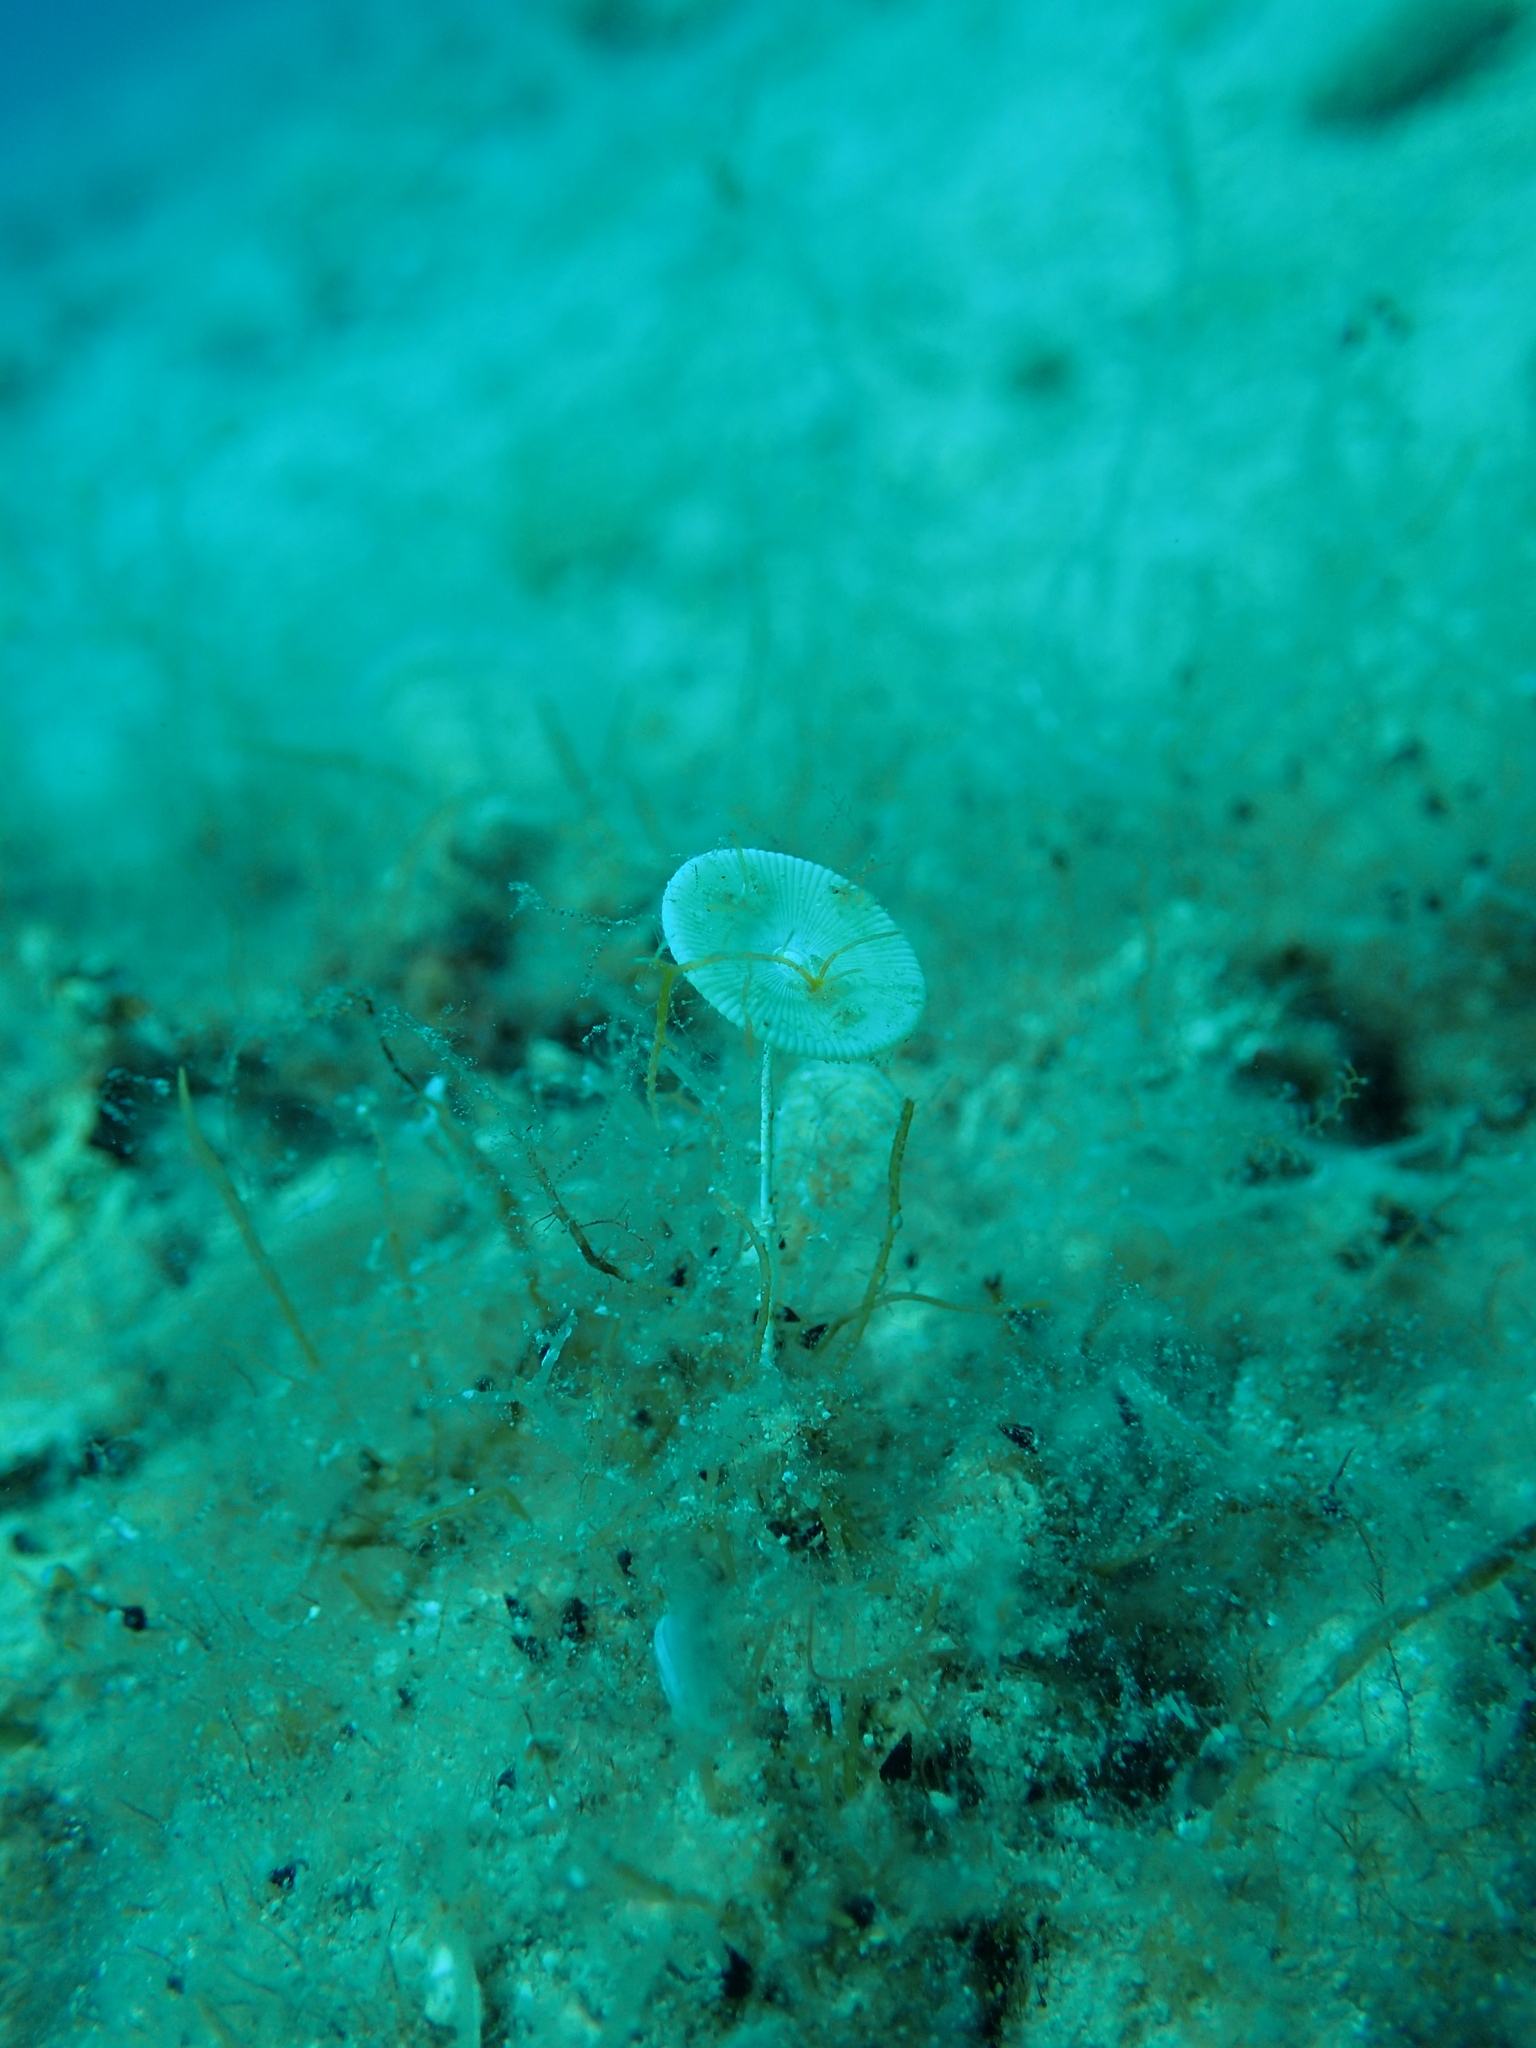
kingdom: Plantae
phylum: Chlorophyta
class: Ulvophyceae
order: Dasycladales
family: Polyphysaceae
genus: Acetabularia
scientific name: Acetabularia acetabulum
